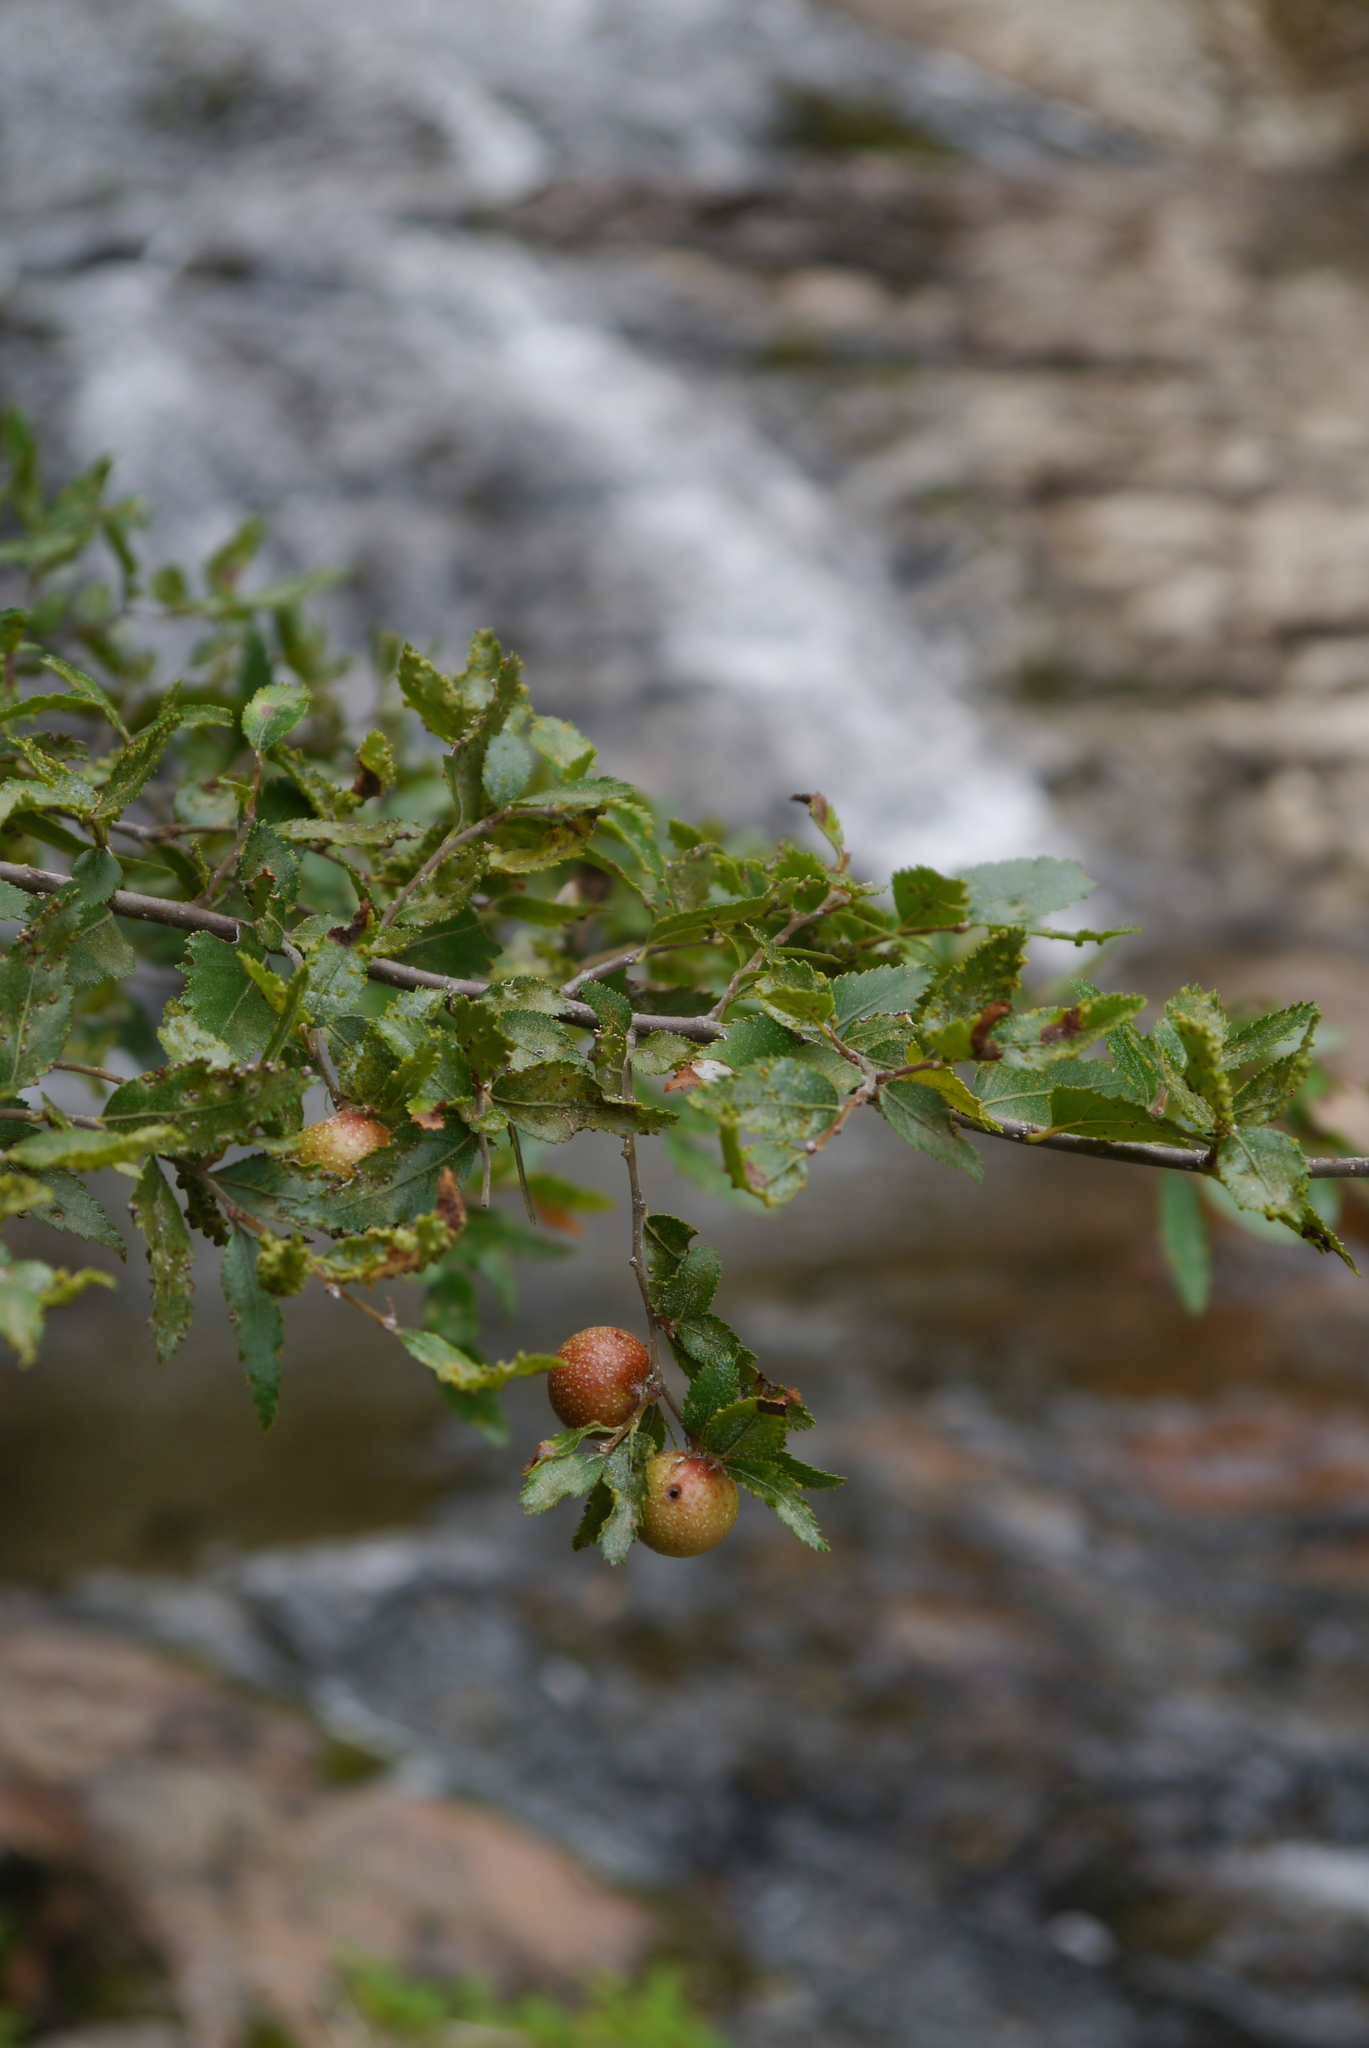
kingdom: Plantae
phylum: Tracheophyta
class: Magnoliopsida
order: Fagales
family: Nothofagaceae
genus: Nothofagus
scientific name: Nothofagus dombeyi
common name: Coigue
